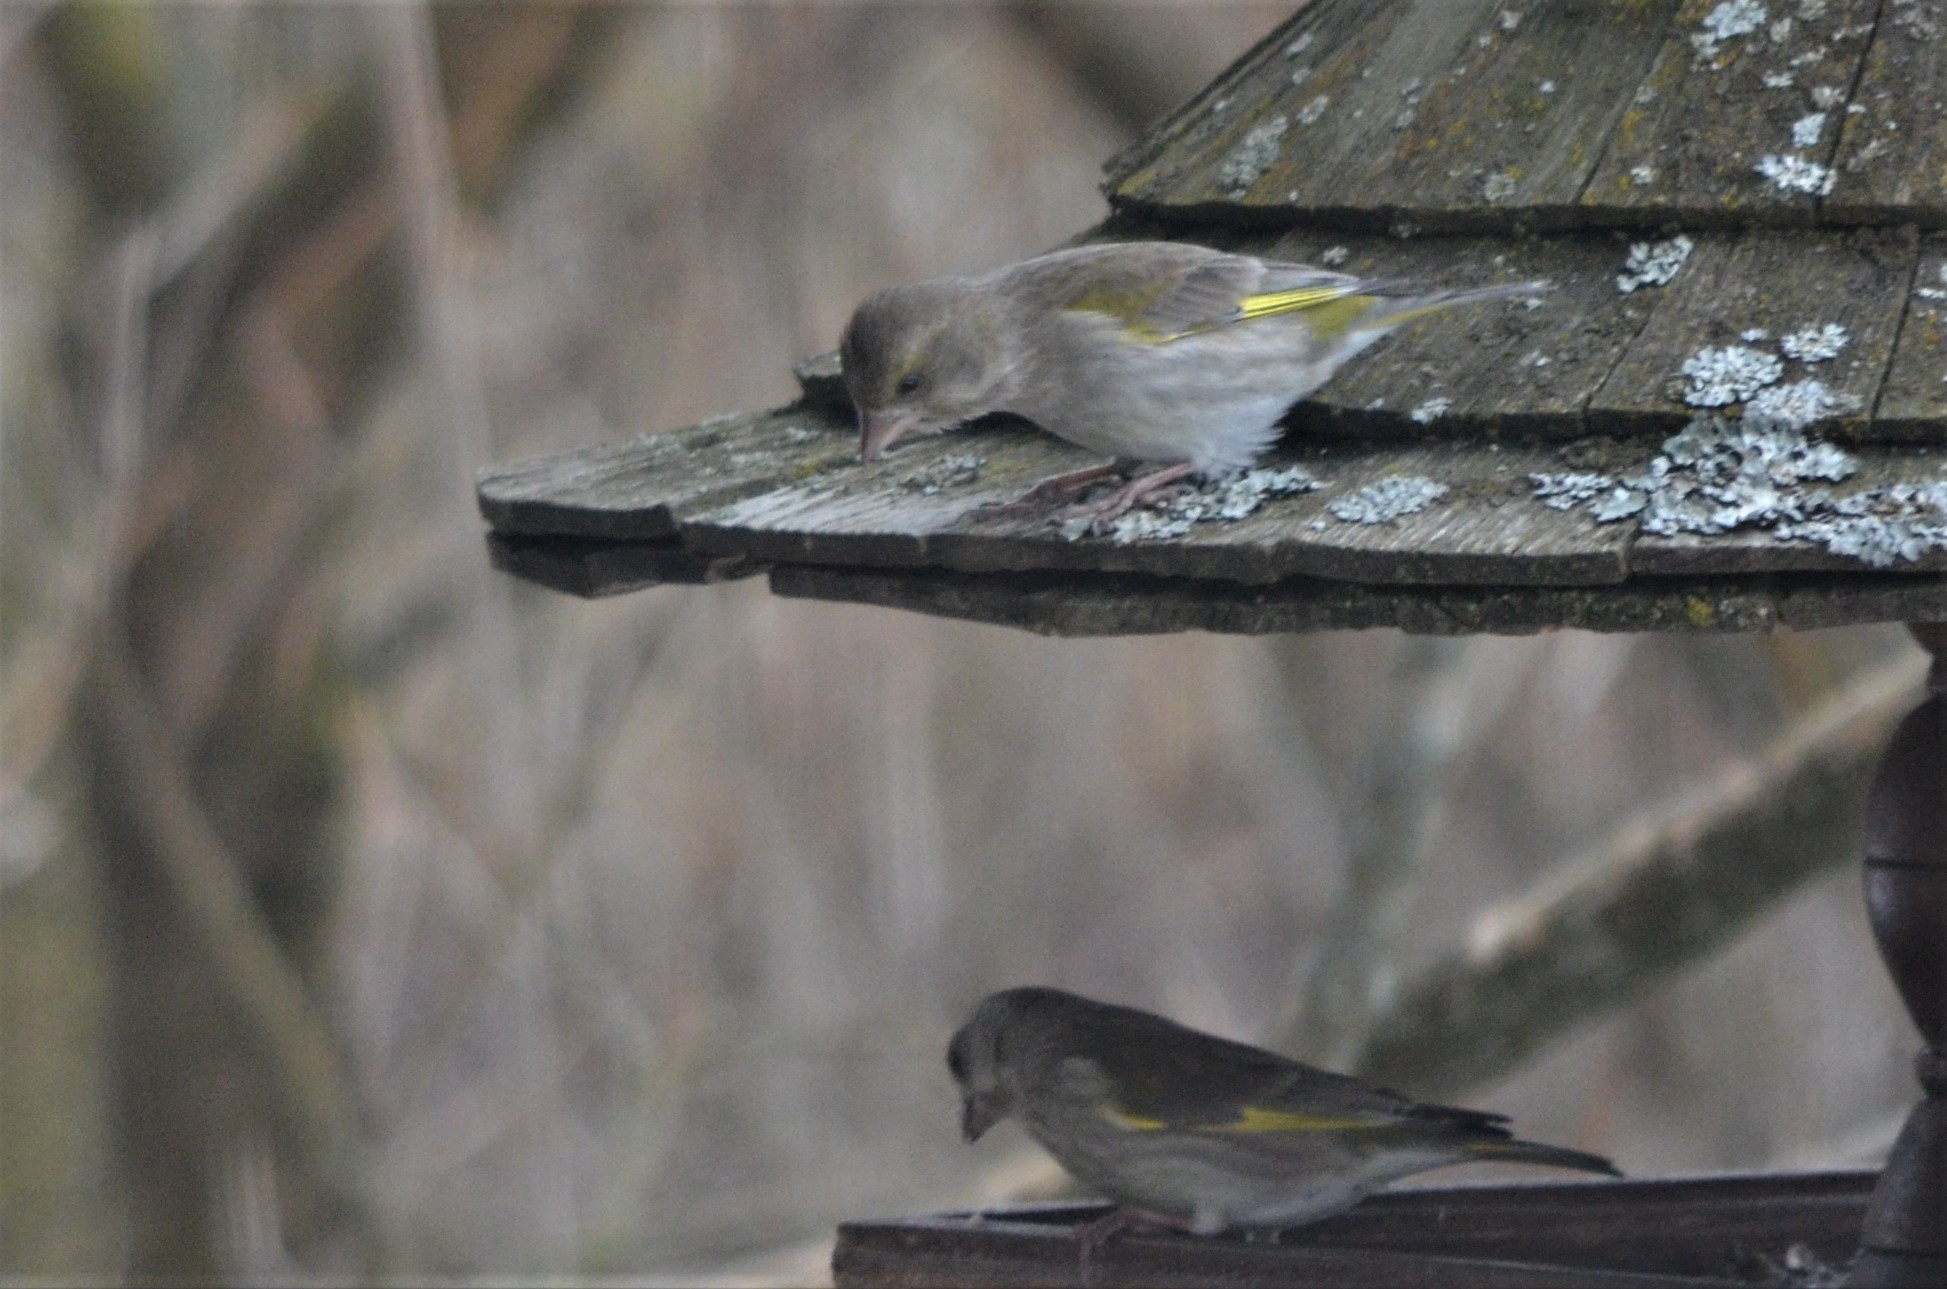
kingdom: Plantae
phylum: Tracheophyta
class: Liliopsida
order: Poales
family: Poaceae
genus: Chloris
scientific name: Chloris chloris
